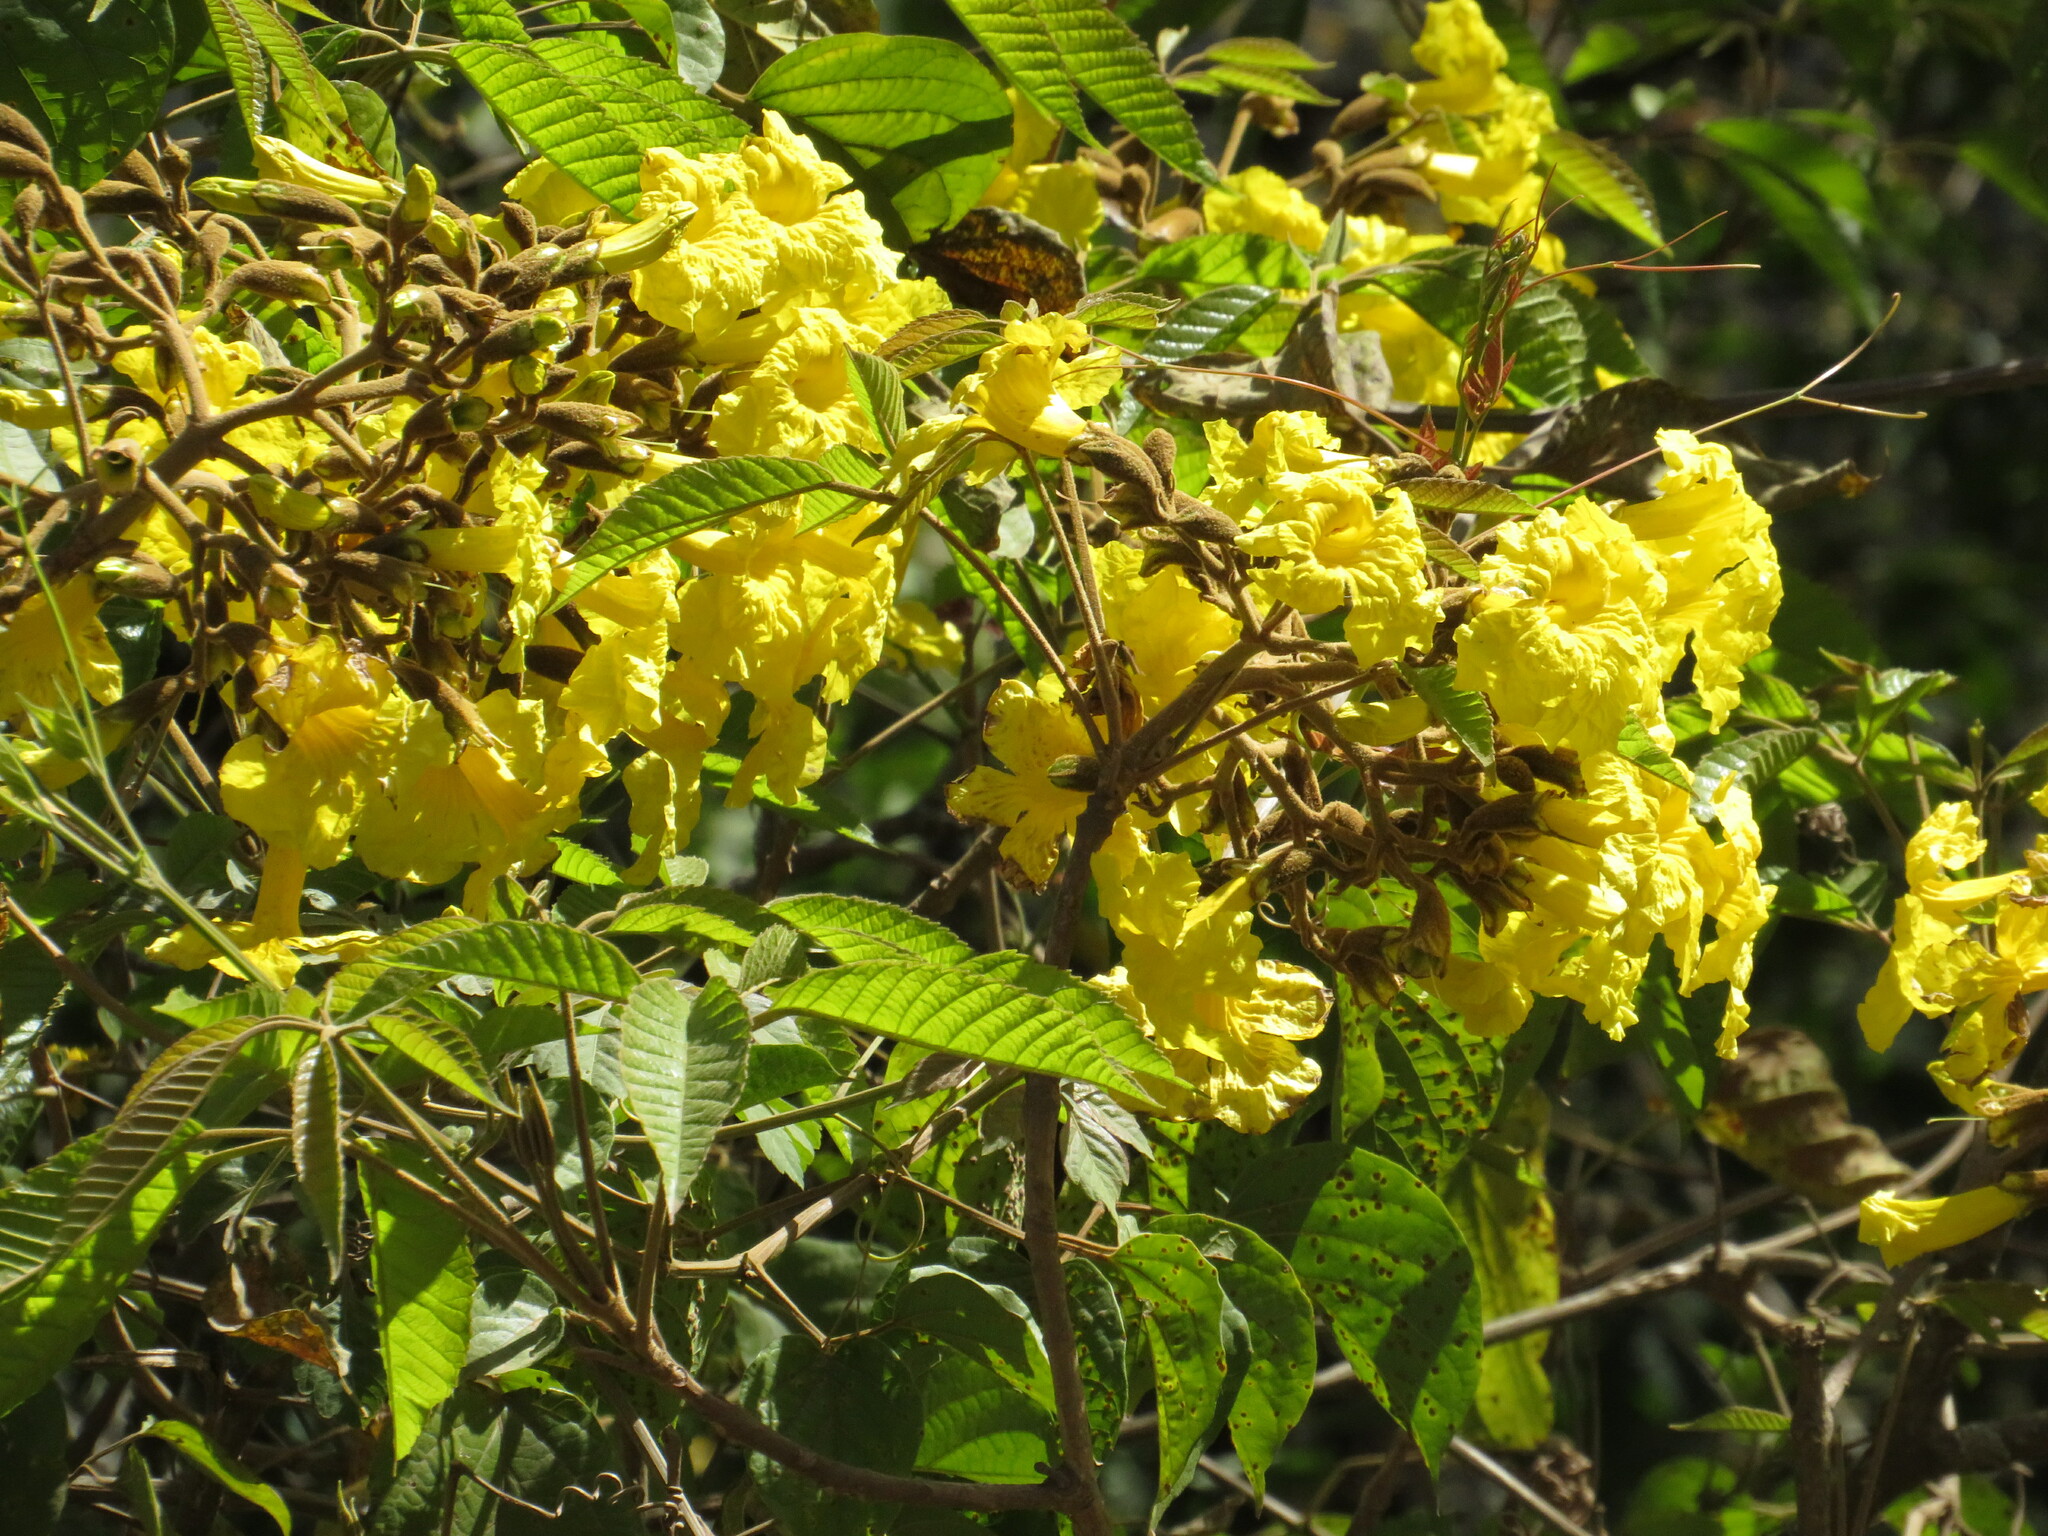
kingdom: Plantae
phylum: Tracheophyta
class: Magnoliopsida
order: Lamiales
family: Bignoniaceae
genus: Handroanthus
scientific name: Handroanthus lapacho
